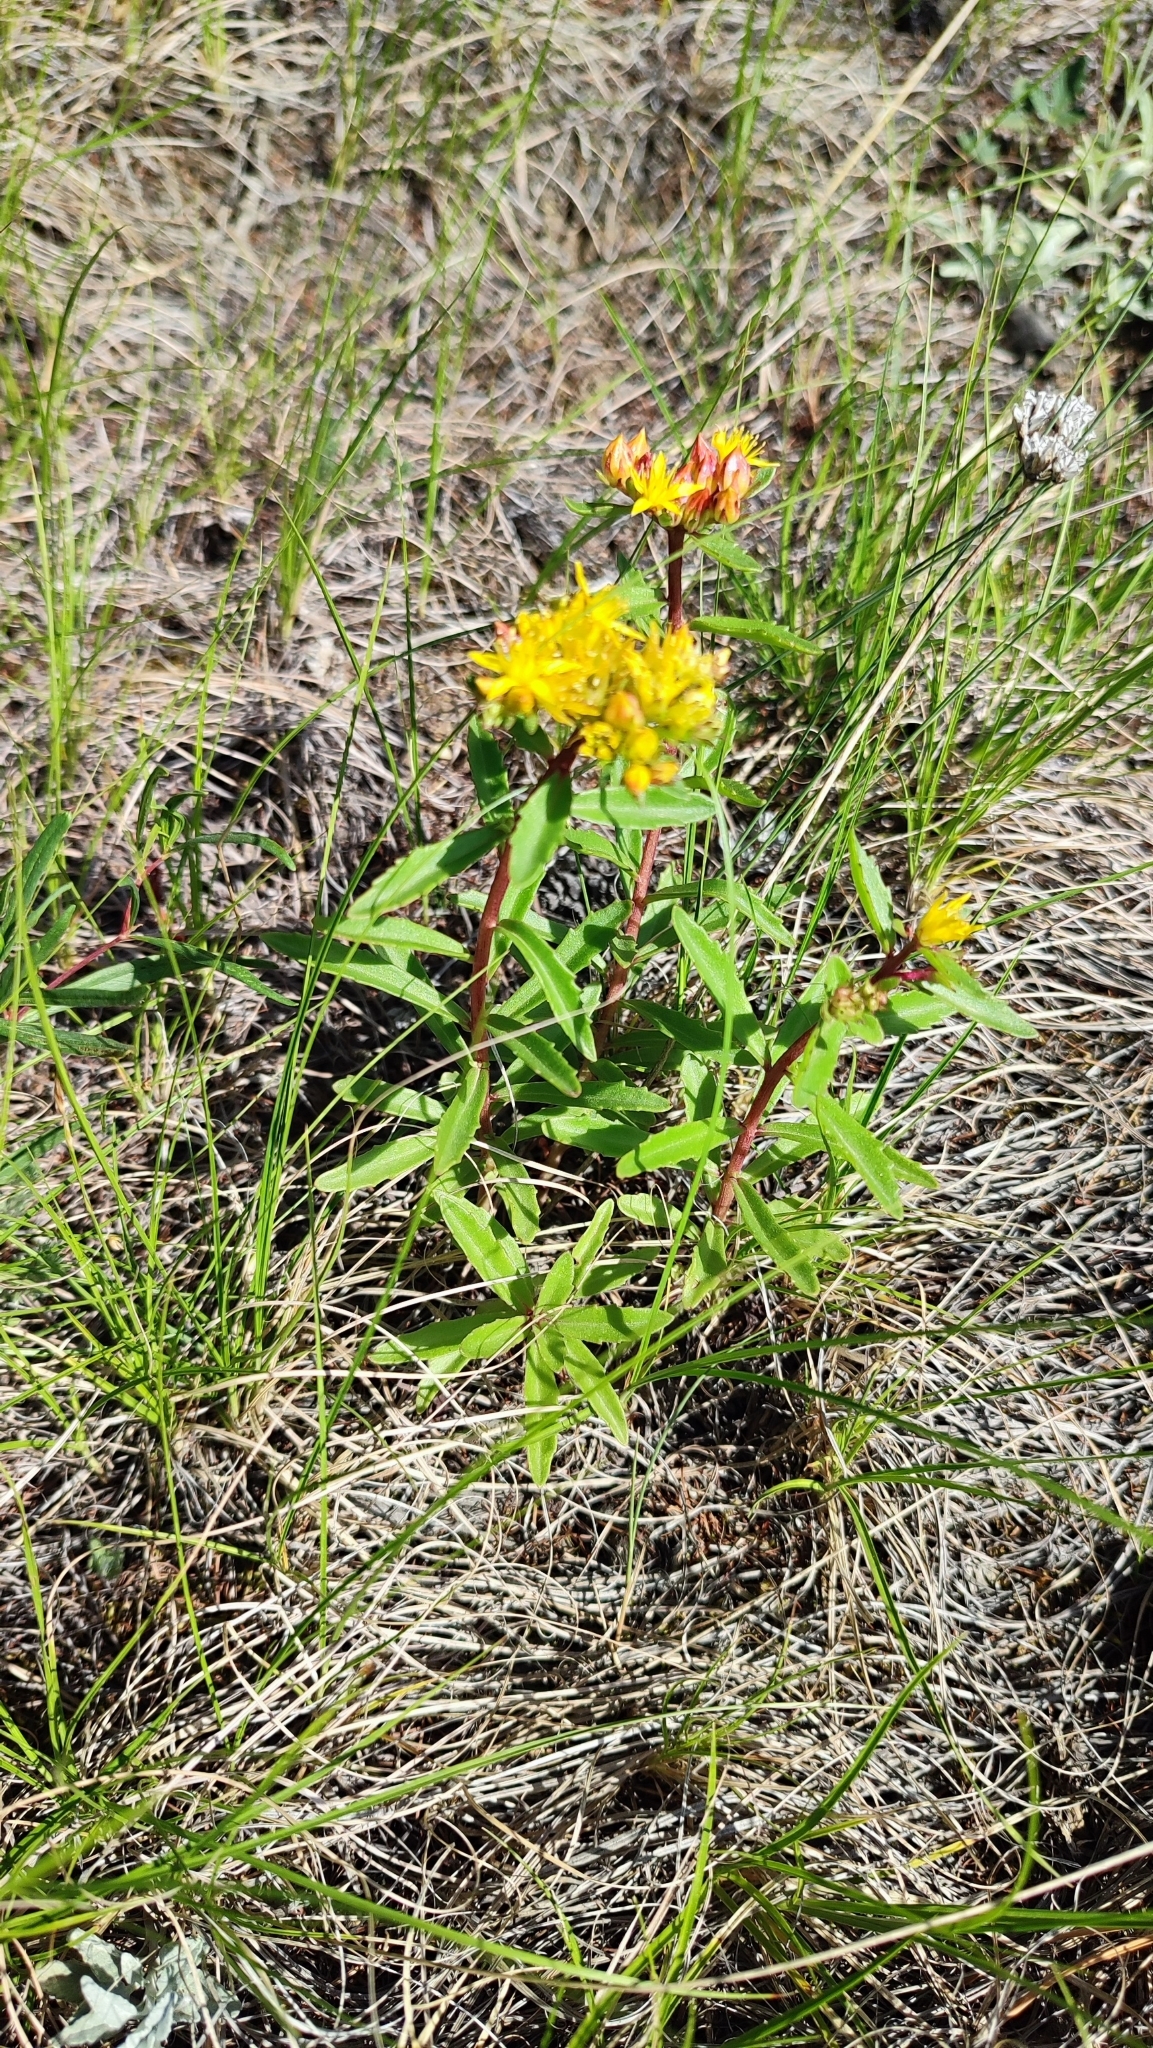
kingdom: Plantae
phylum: Tracheophyta
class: Magnoliopsida
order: Saxifragales
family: Crassulaceae
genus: Phedimus
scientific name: Phedimus aizoon
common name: Orpin aizoon
